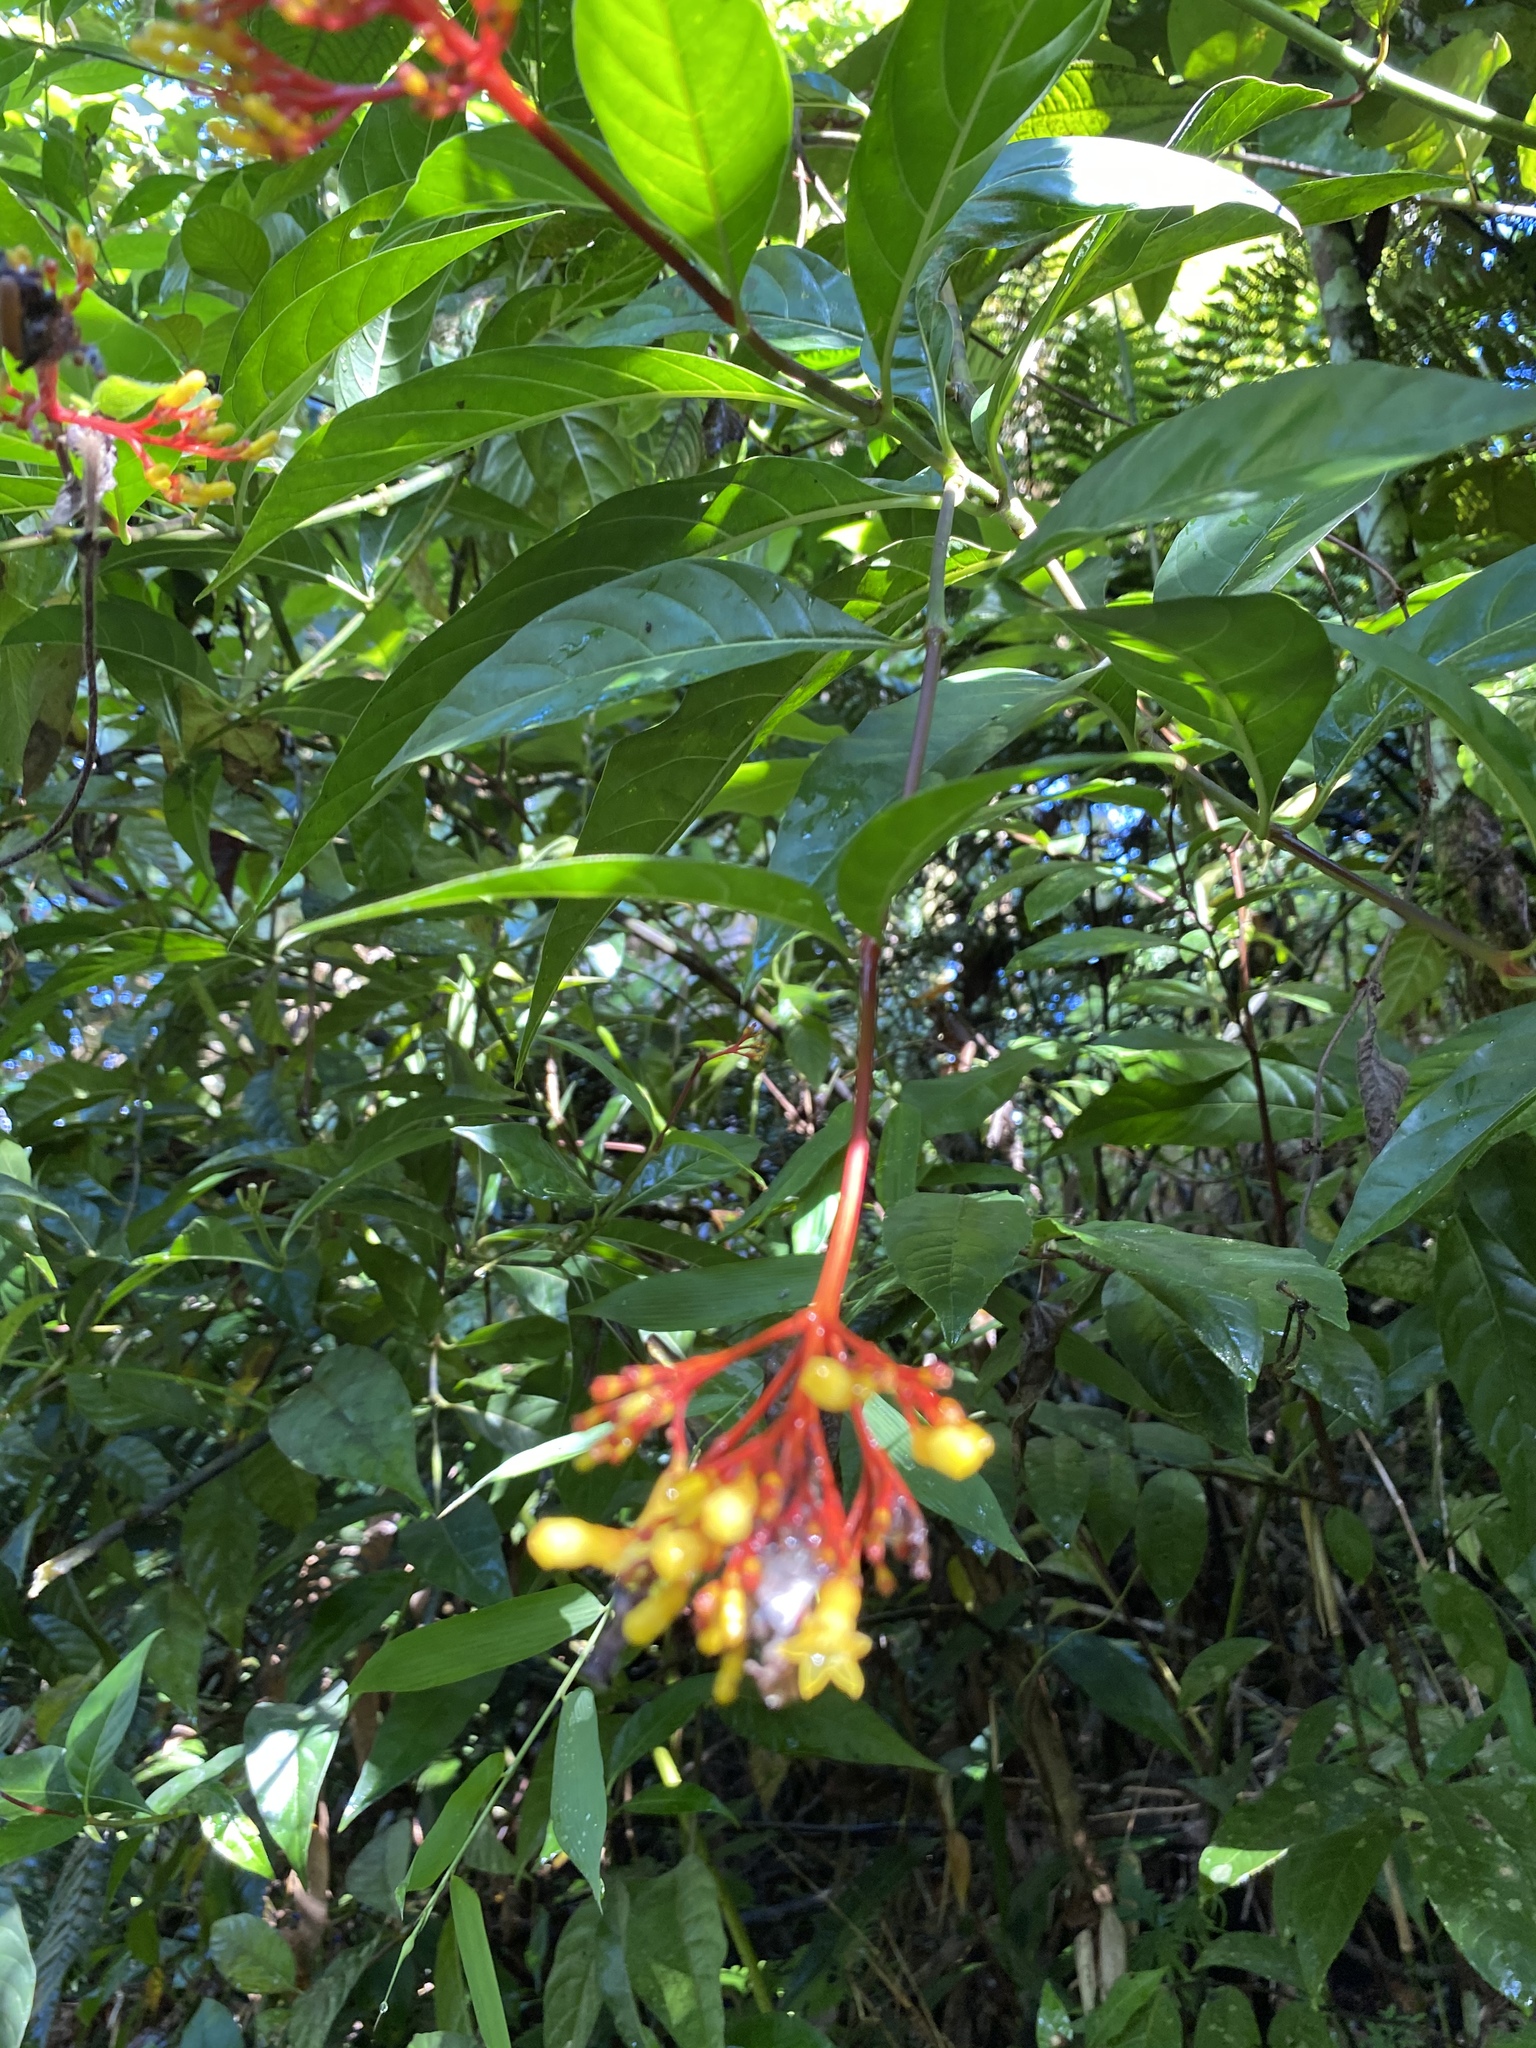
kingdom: Plantae
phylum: Tracheophyta
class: Magnoliopsida
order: Gentianales
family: Rubiaceae
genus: Palicourea
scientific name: Palicourea croceoides
